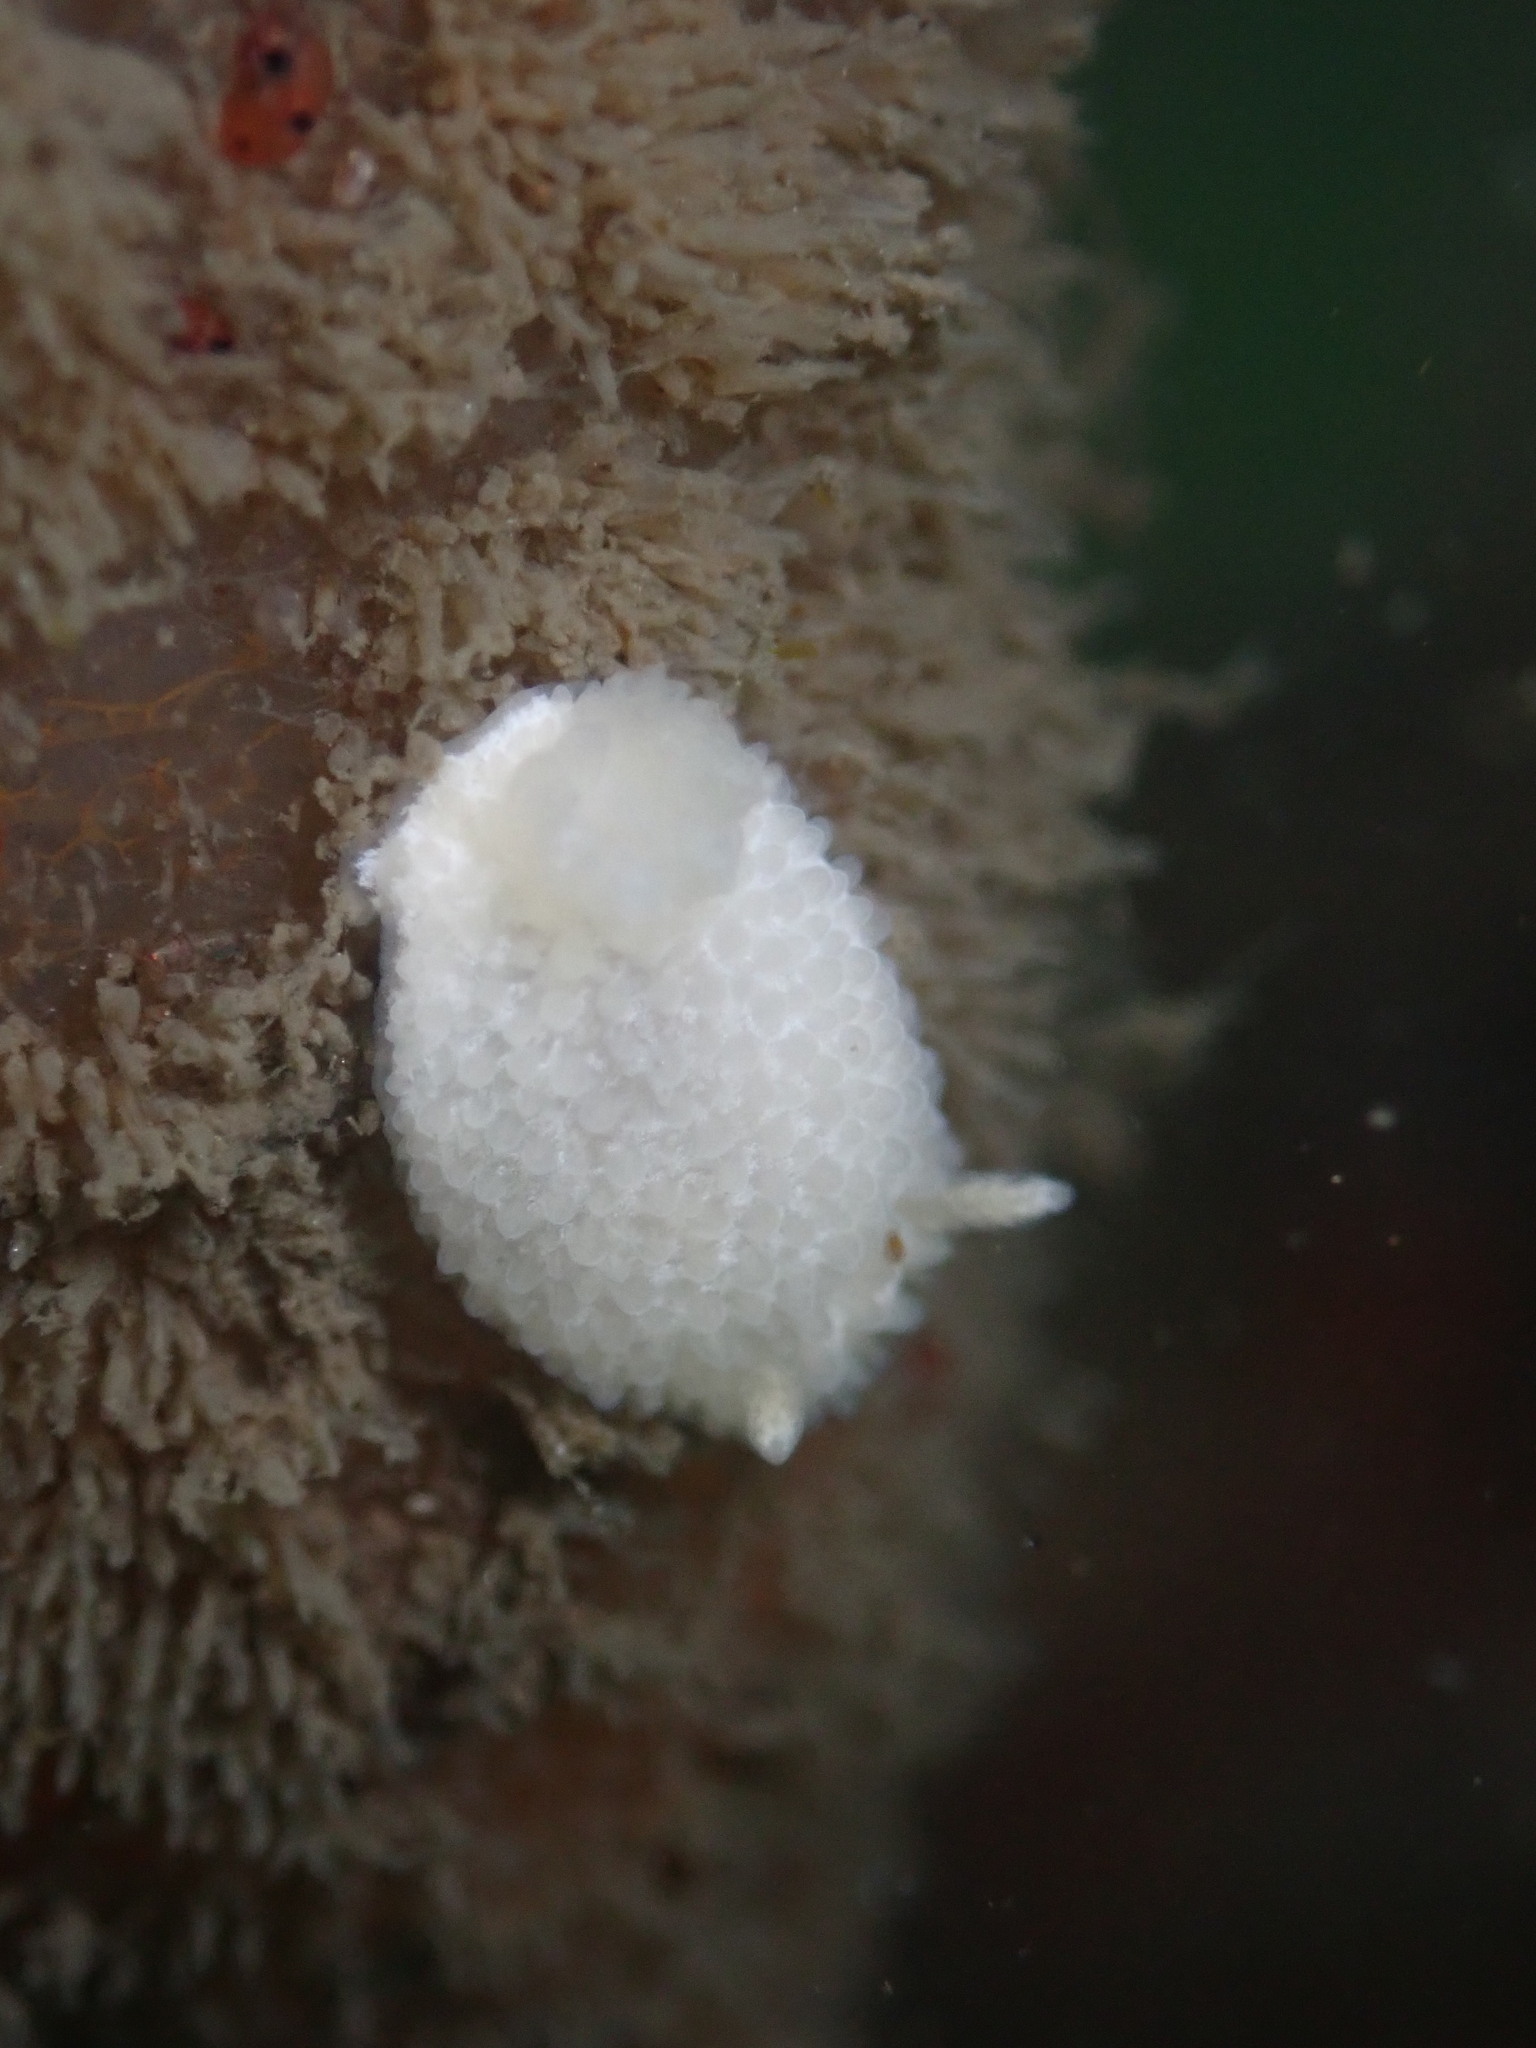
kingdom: Animalia
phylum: Mollusca
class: Gastropoda
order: Nudibranchia
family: Calycidorididae
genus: Diaphorodoris
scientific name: Diaphorodoris lirulatocauda
